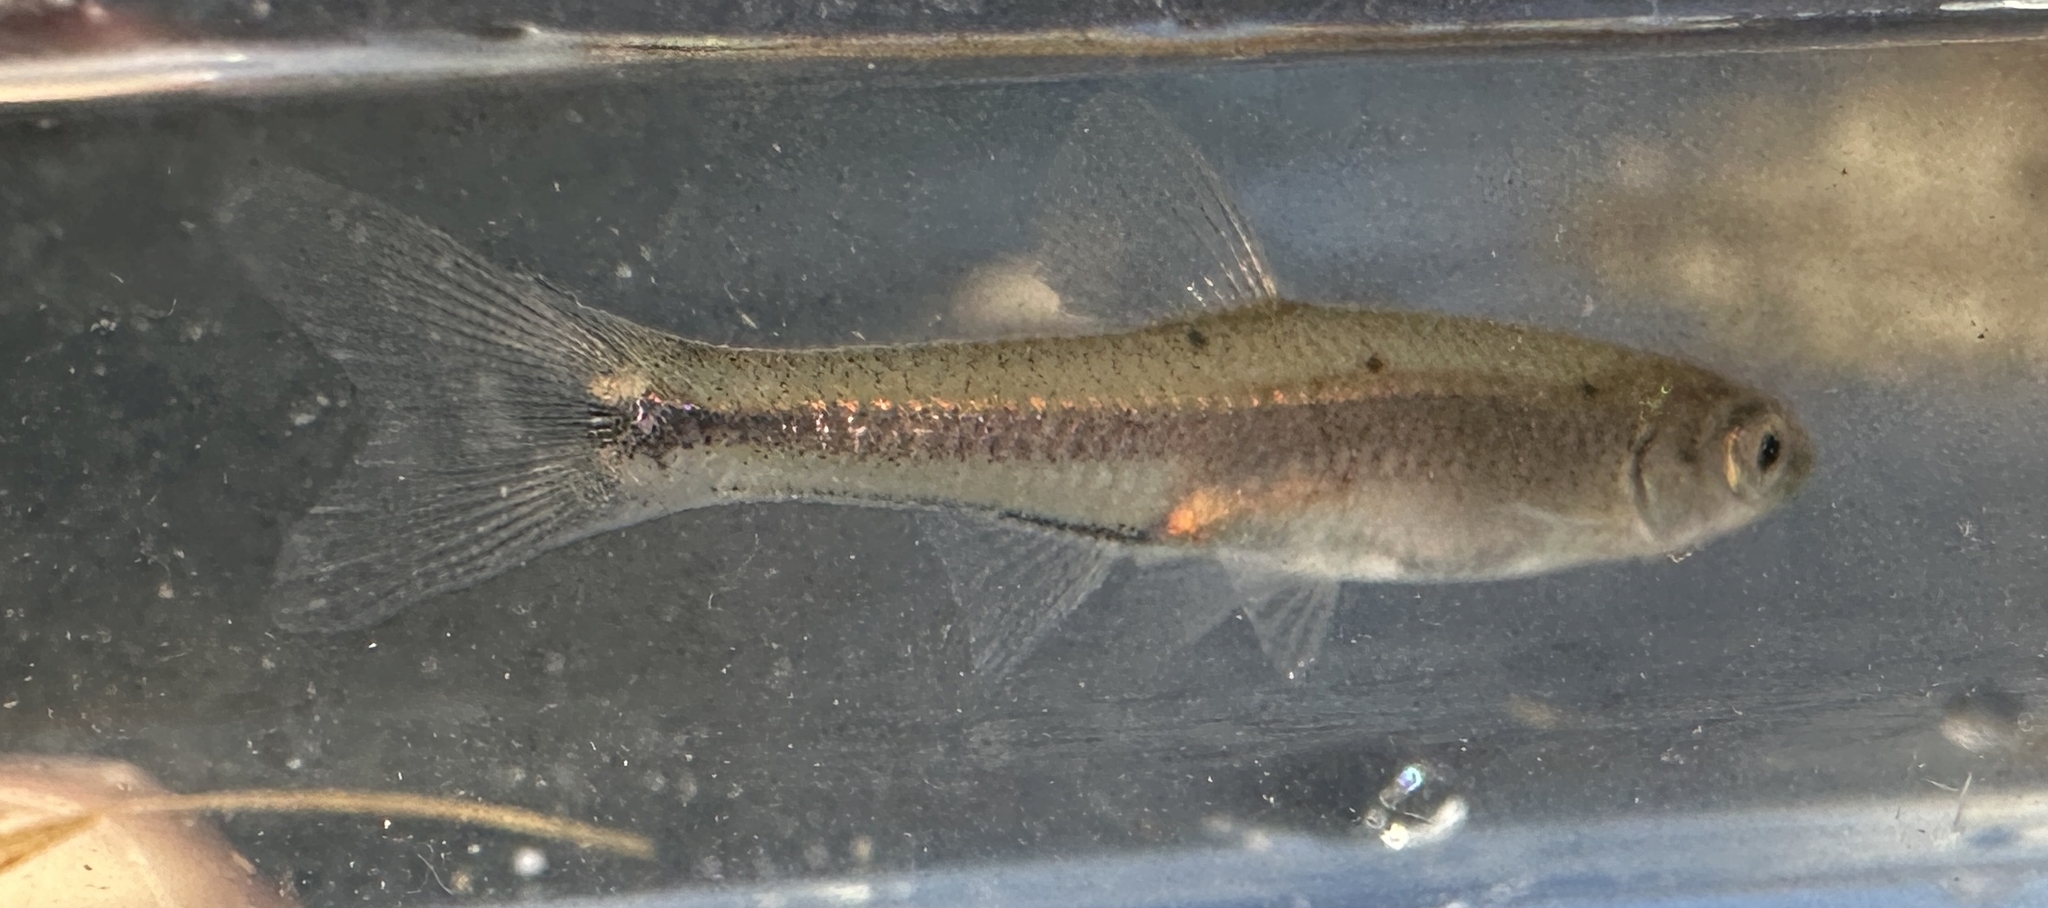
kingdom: Animalia
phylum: Chordata
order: Cypriniformes
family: Cyprinidae
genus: Luxilus
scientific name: Luxilus chrysocephalus
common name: Striped shiner
